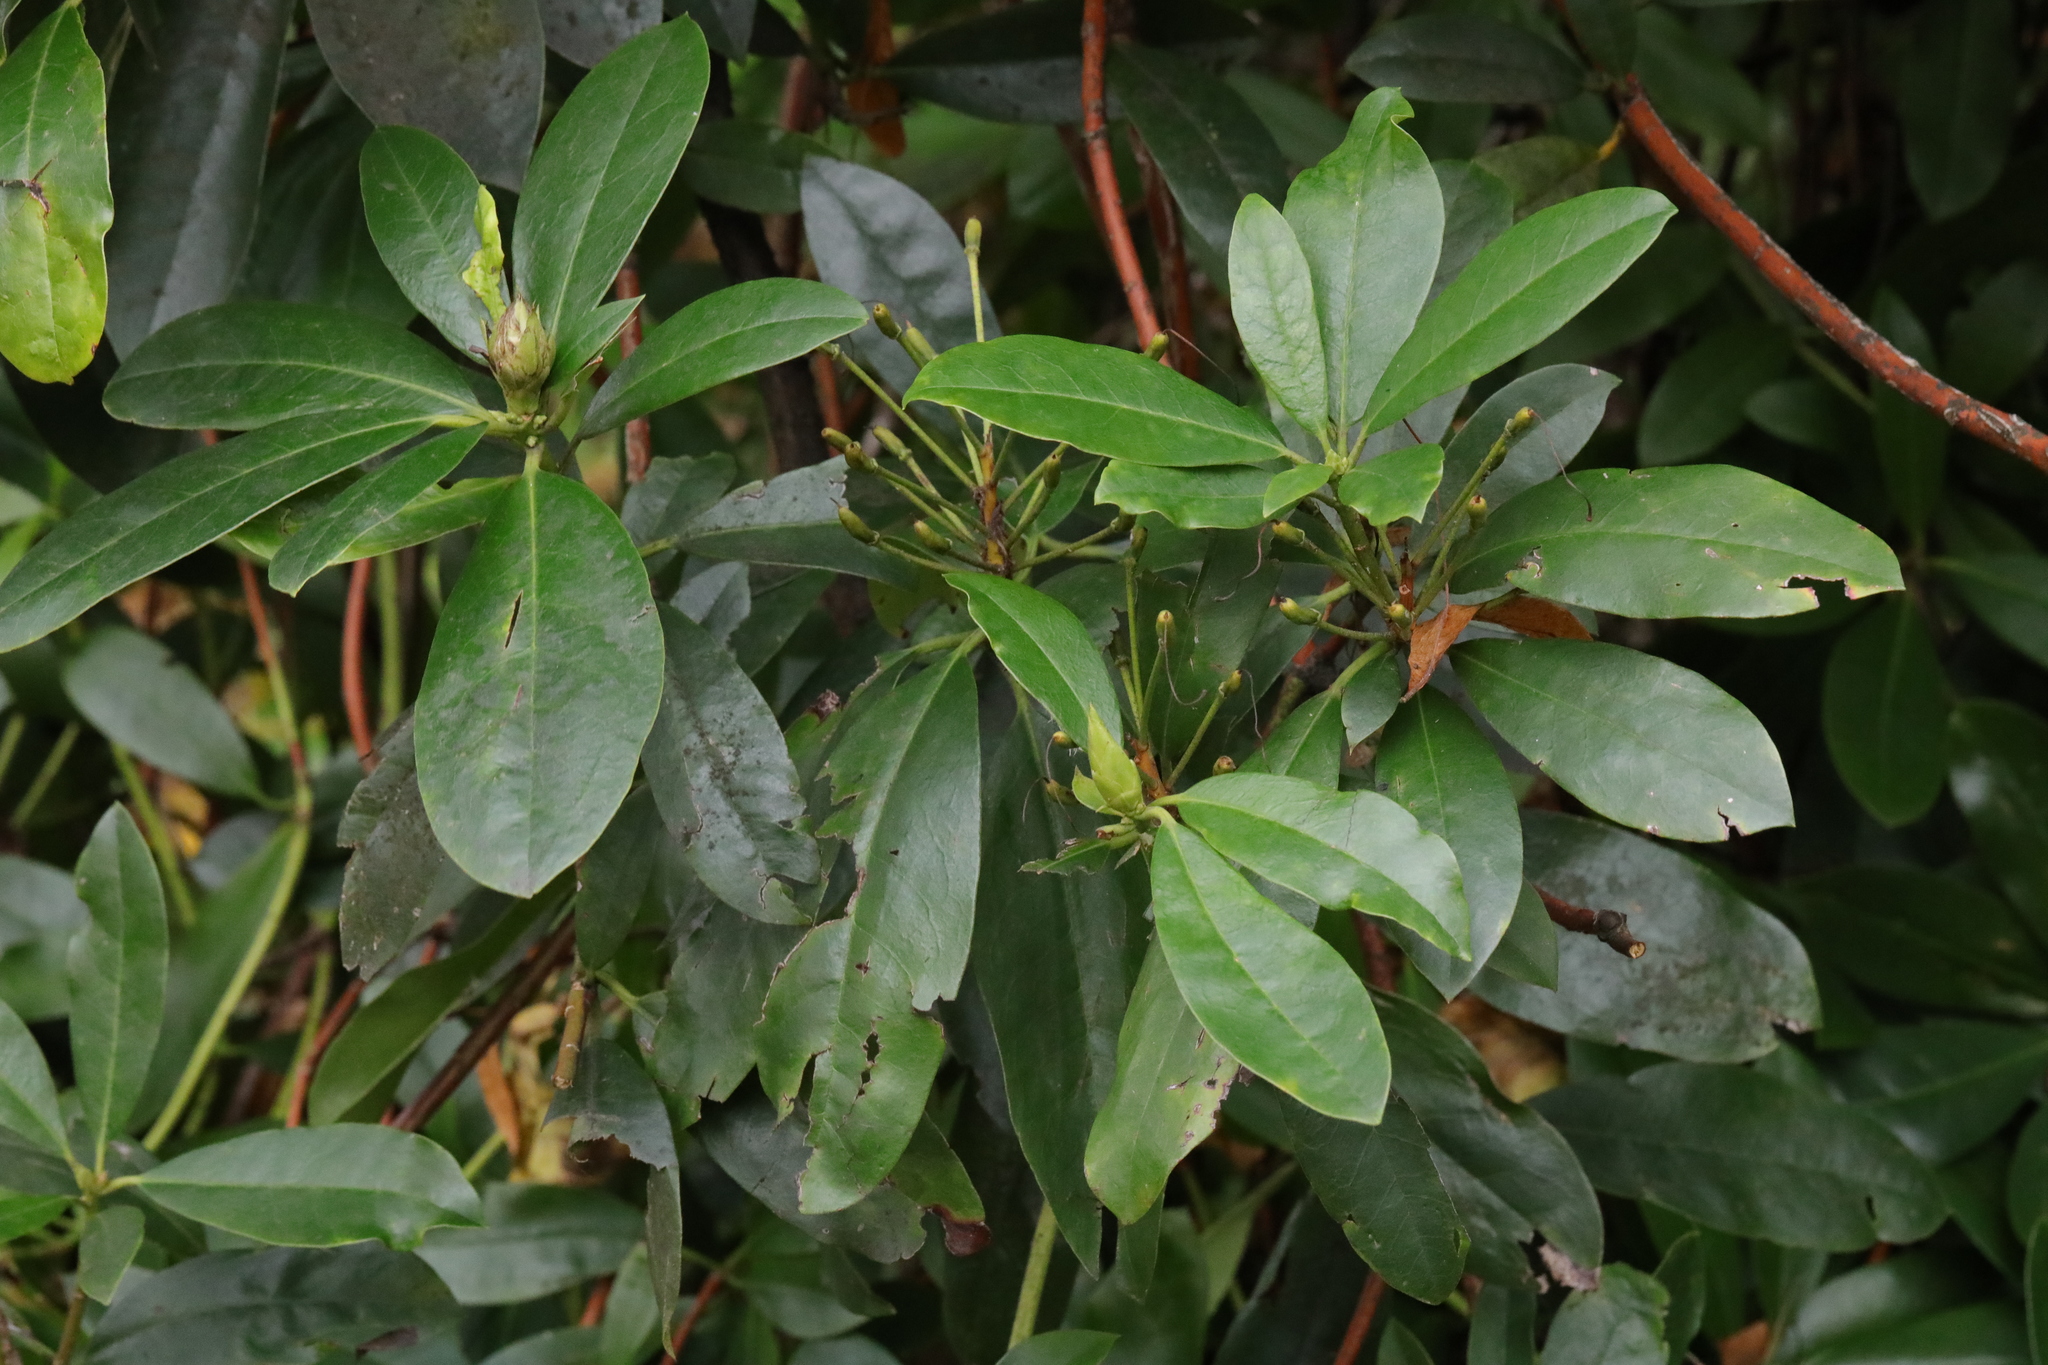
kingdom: Plantae
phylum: Tracheophyta
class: Magnoliopsida
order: Ericales
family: Ericaceae
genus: Rhododendron
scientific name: Rhododendron ponticum
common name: Rhododendron
